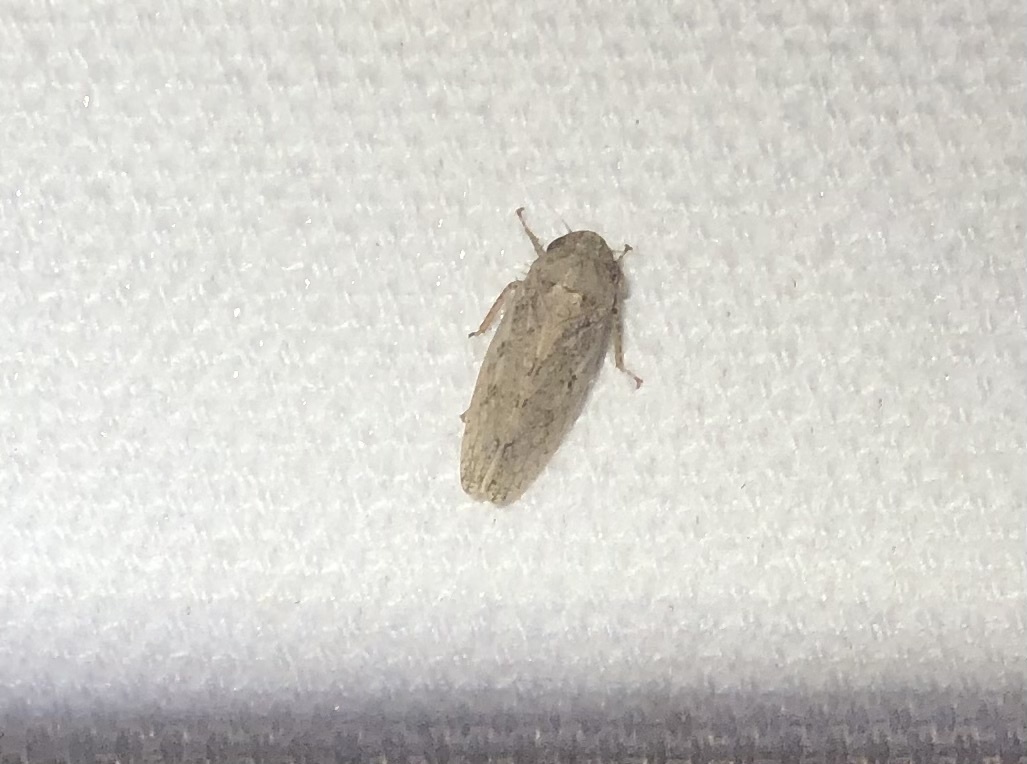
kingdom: Animalia
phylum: Arthropoda
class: Insecta
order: Hemiptera
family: Cicadellidae
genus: Curtara
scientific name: Curtara insularis
